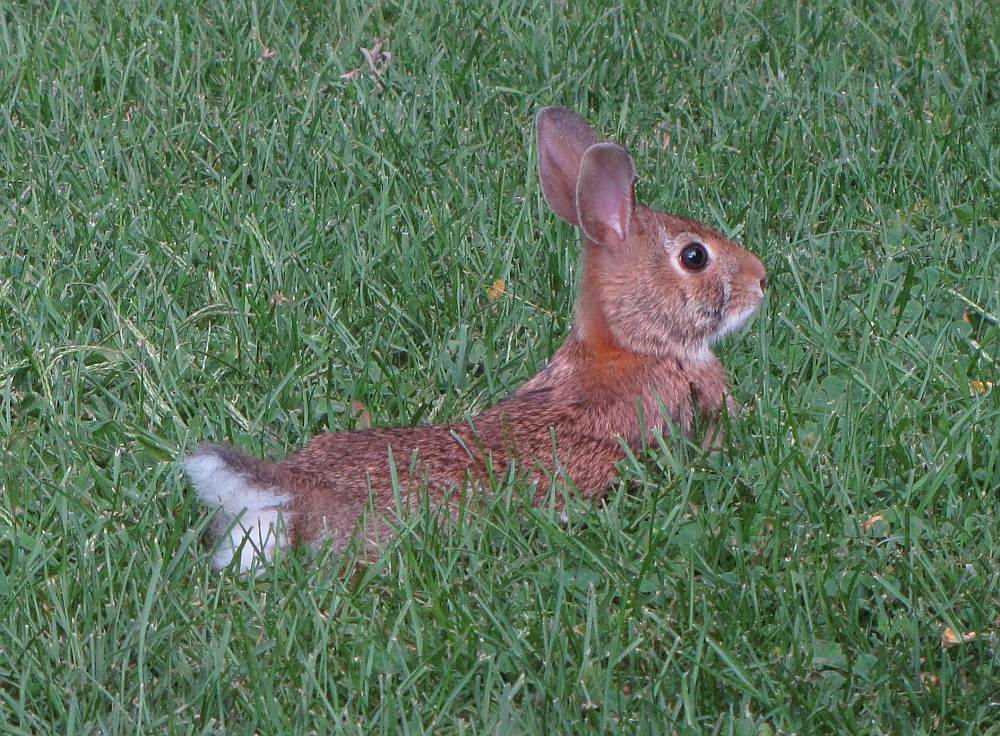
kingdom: Animalia
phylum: Chordata
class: Mammalia
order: Lagomorpha
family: Leporidae
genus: Sylvilagus
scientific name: Sylvilagus floridanus
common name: Eastern cottontail
